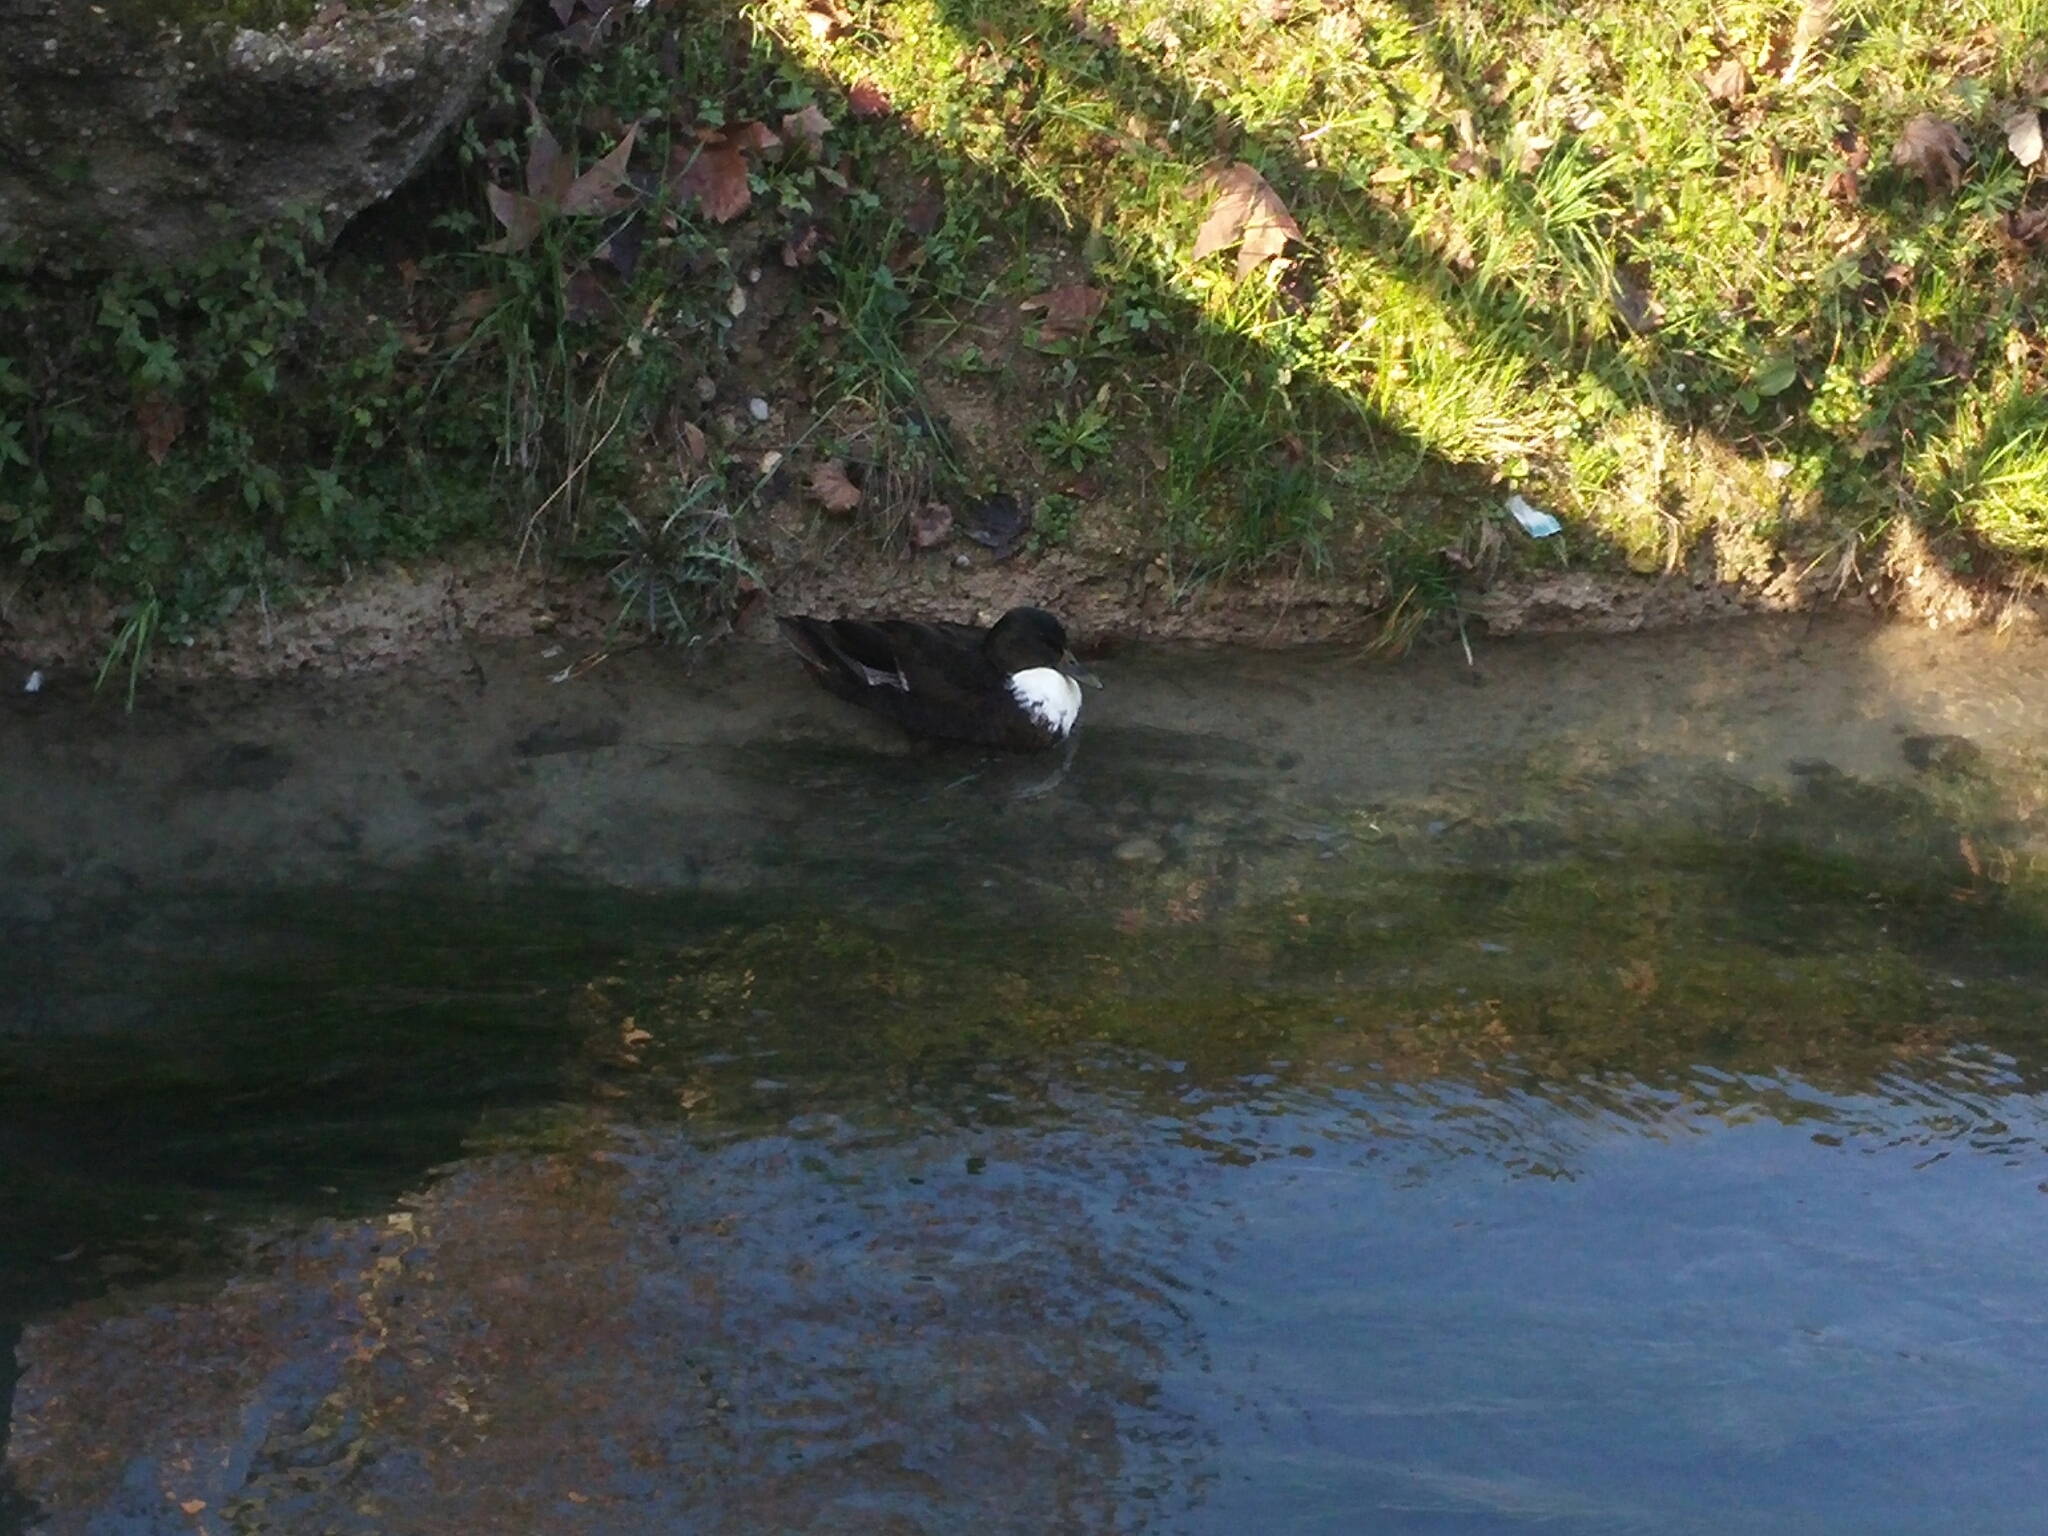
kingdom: Animalia
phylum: Chordata
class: Aves
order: Anseriformes
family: Anatidae
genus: Anas
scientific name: Anas platyrhynchos
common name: Mallard
